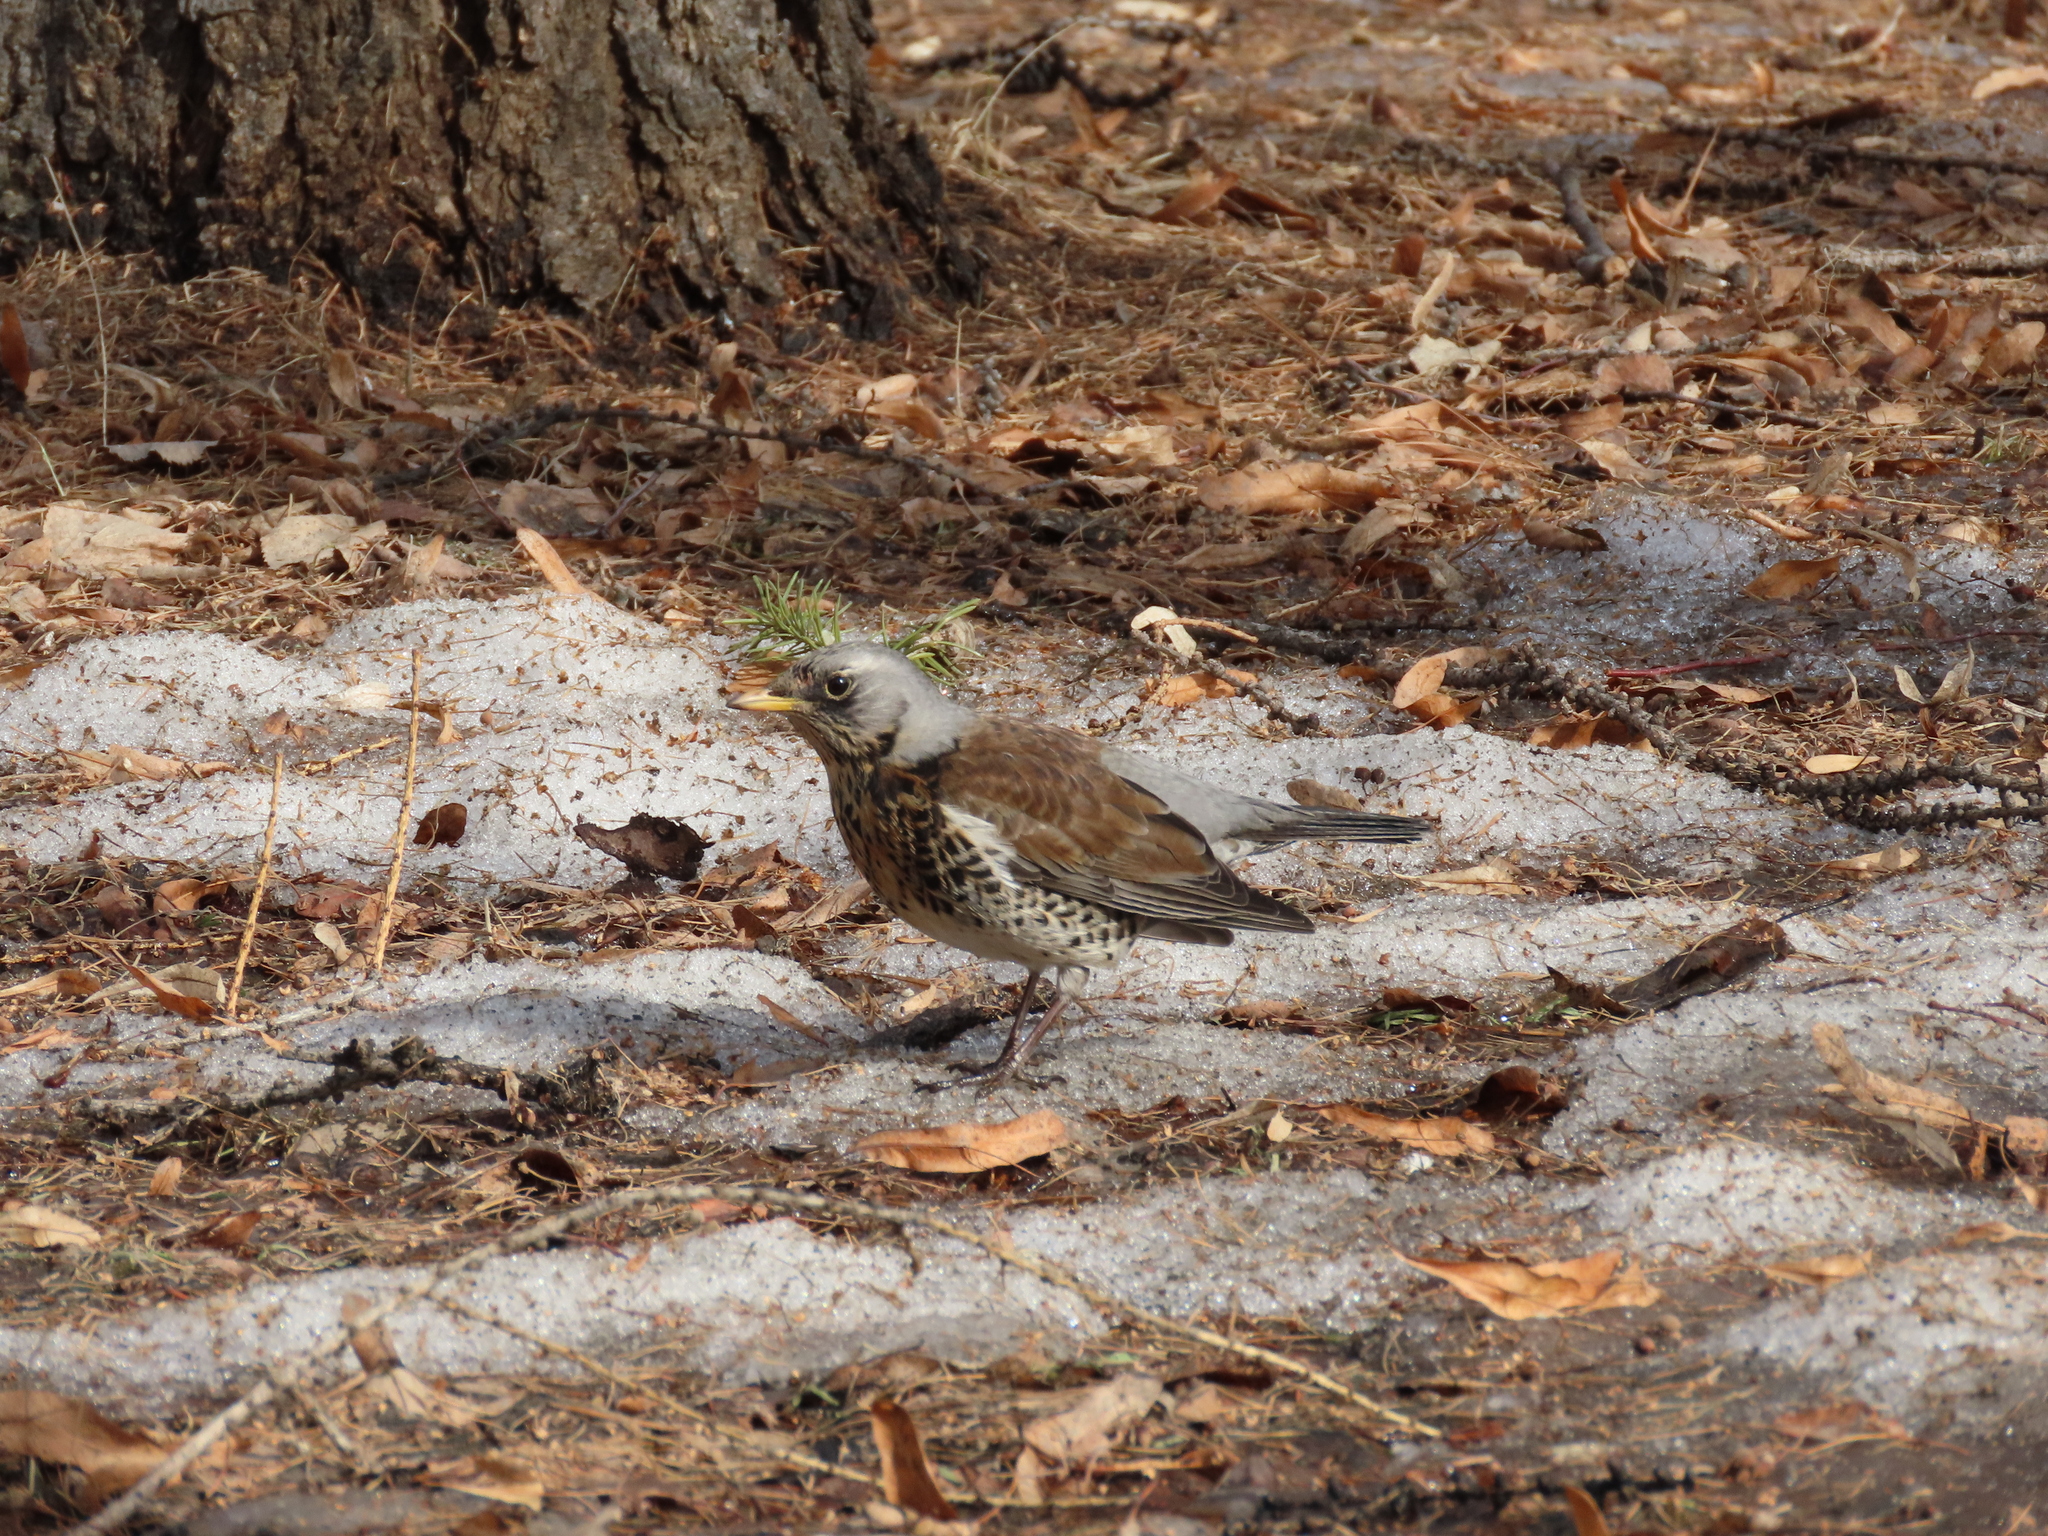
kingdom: Animalia
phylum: Chordata
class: Aves
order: Passeriformes
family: Turdidae
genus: Turdus
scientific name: Turdus pilaris
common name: Fieldfare
